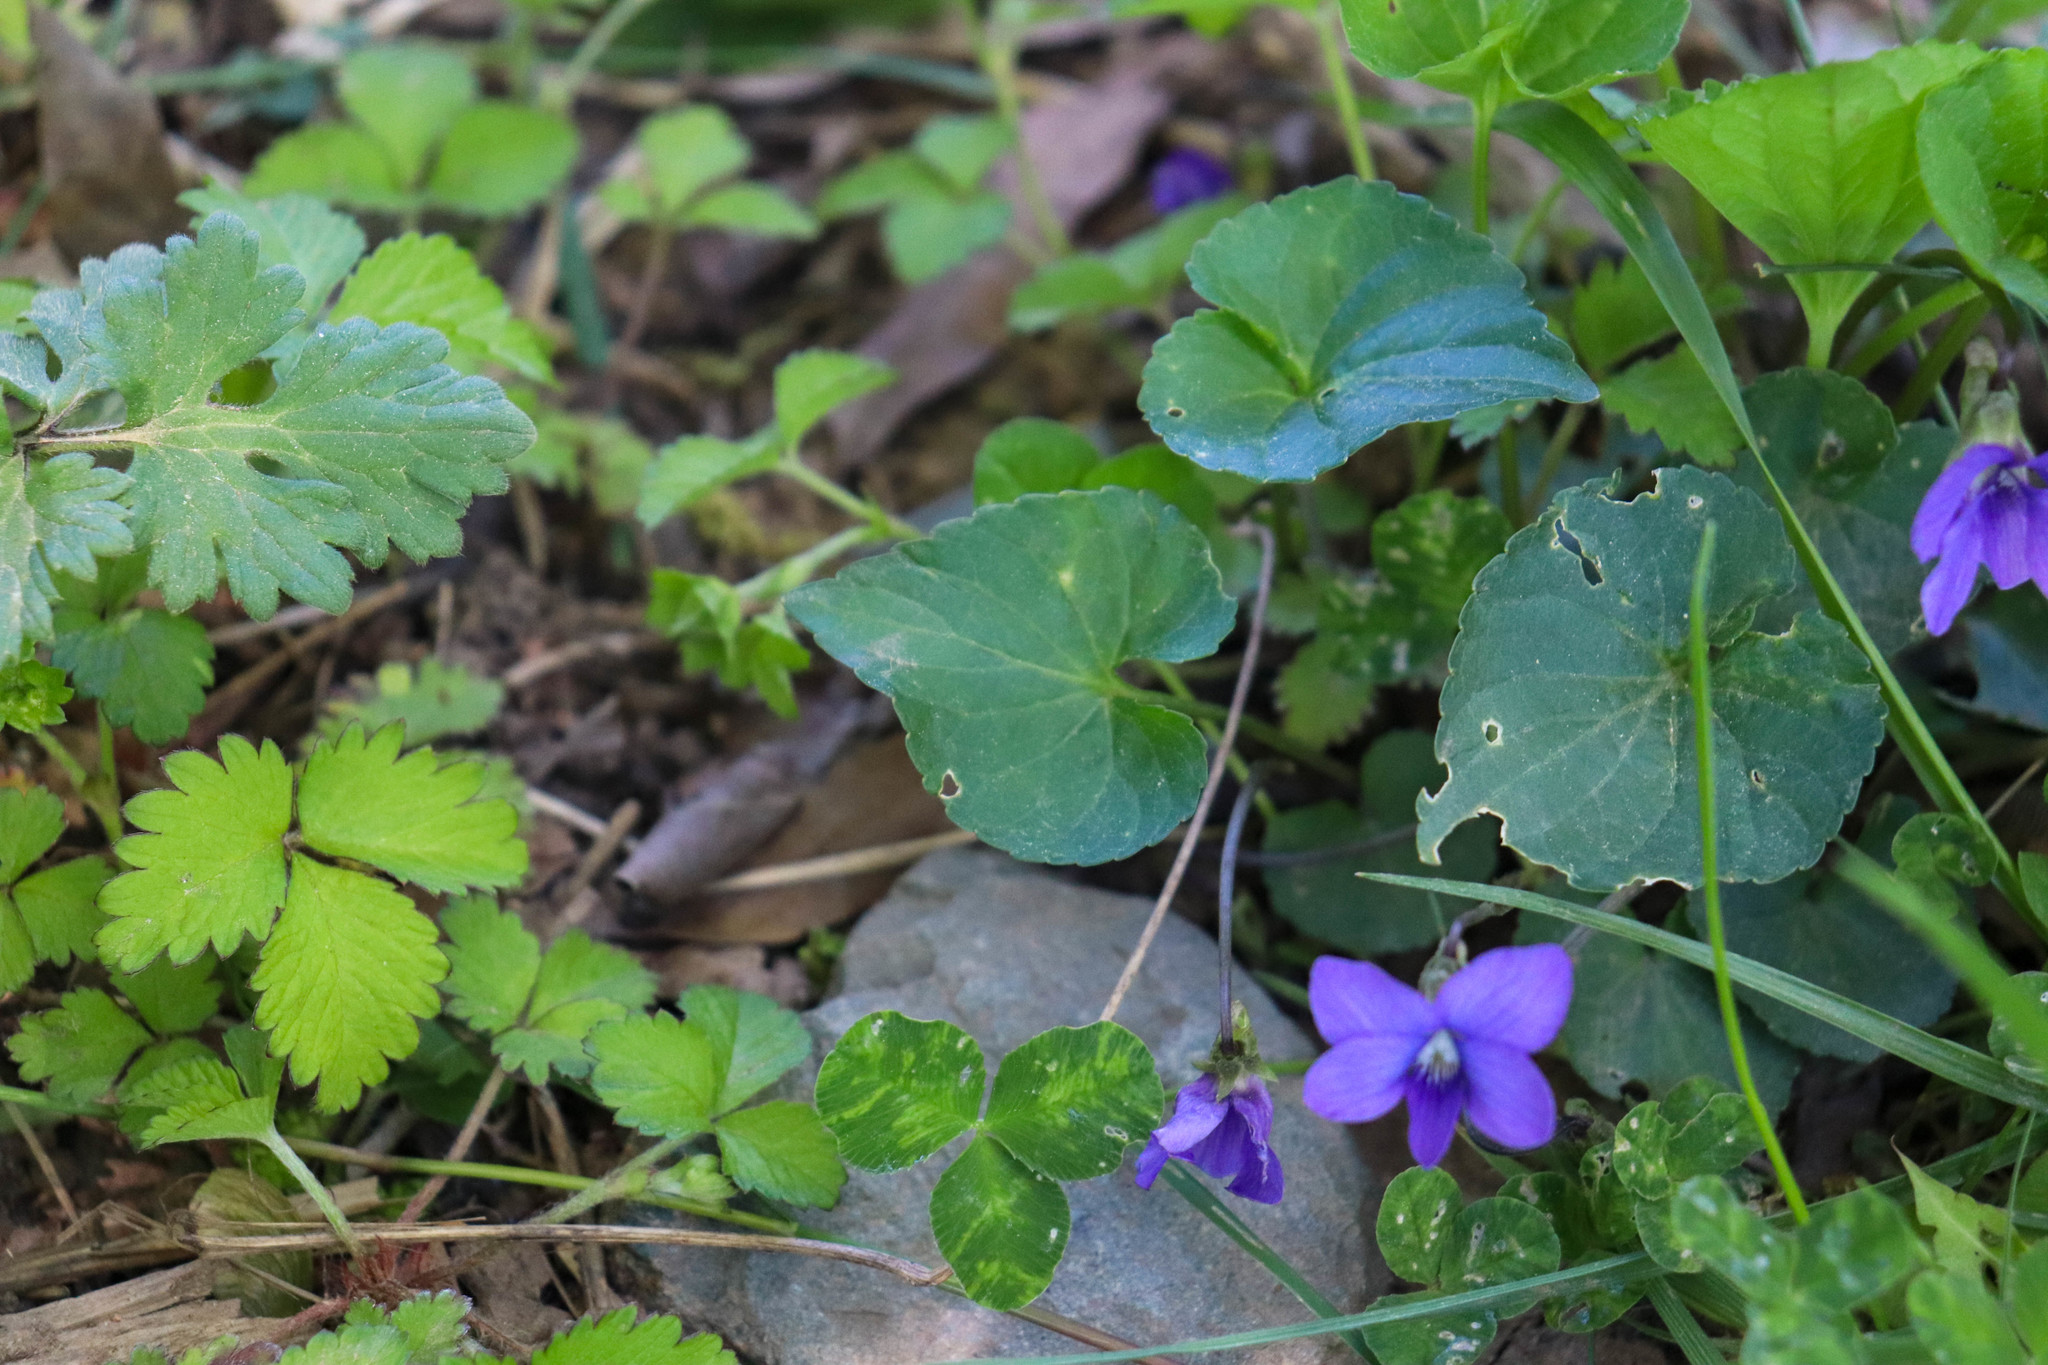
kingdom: Plantae
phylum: Tracheophyta
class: Magnoliopsida
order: Malpighiales
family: Violaceae
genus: Viola
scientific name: Viola sororia
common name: Dooryard violet
